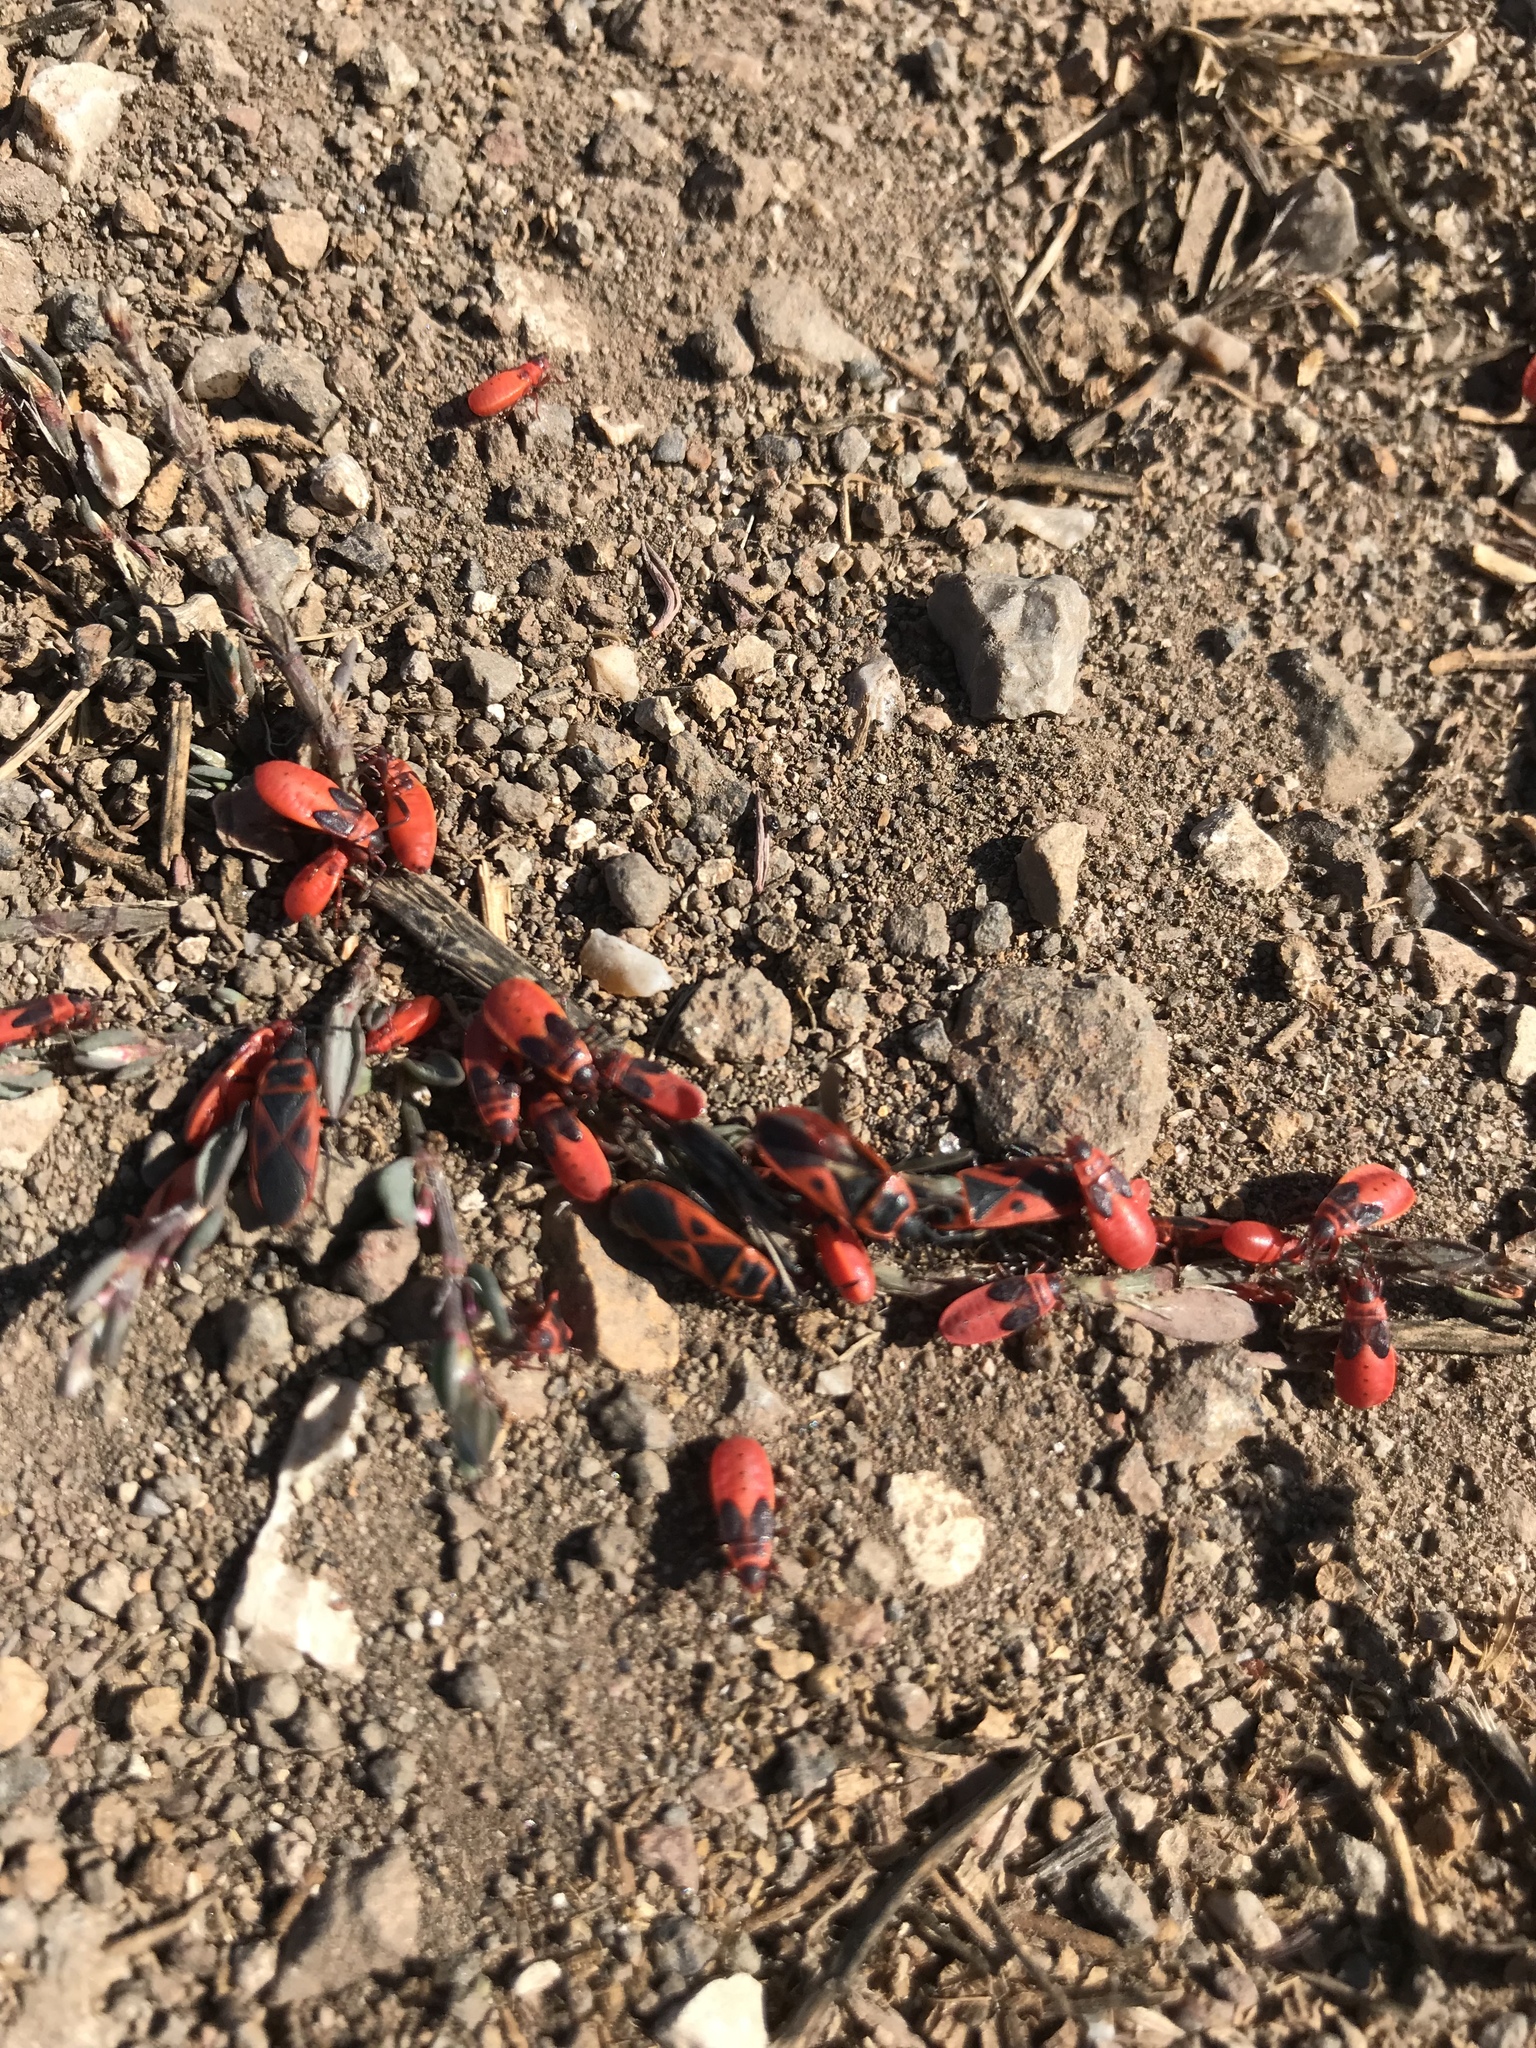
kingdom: Animalia
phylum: Arthropoda
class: Insecta
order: Hemiptera
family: Pyrrhocoridae
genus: Scantius
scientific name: Scantius aegyptius
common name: Red bug
